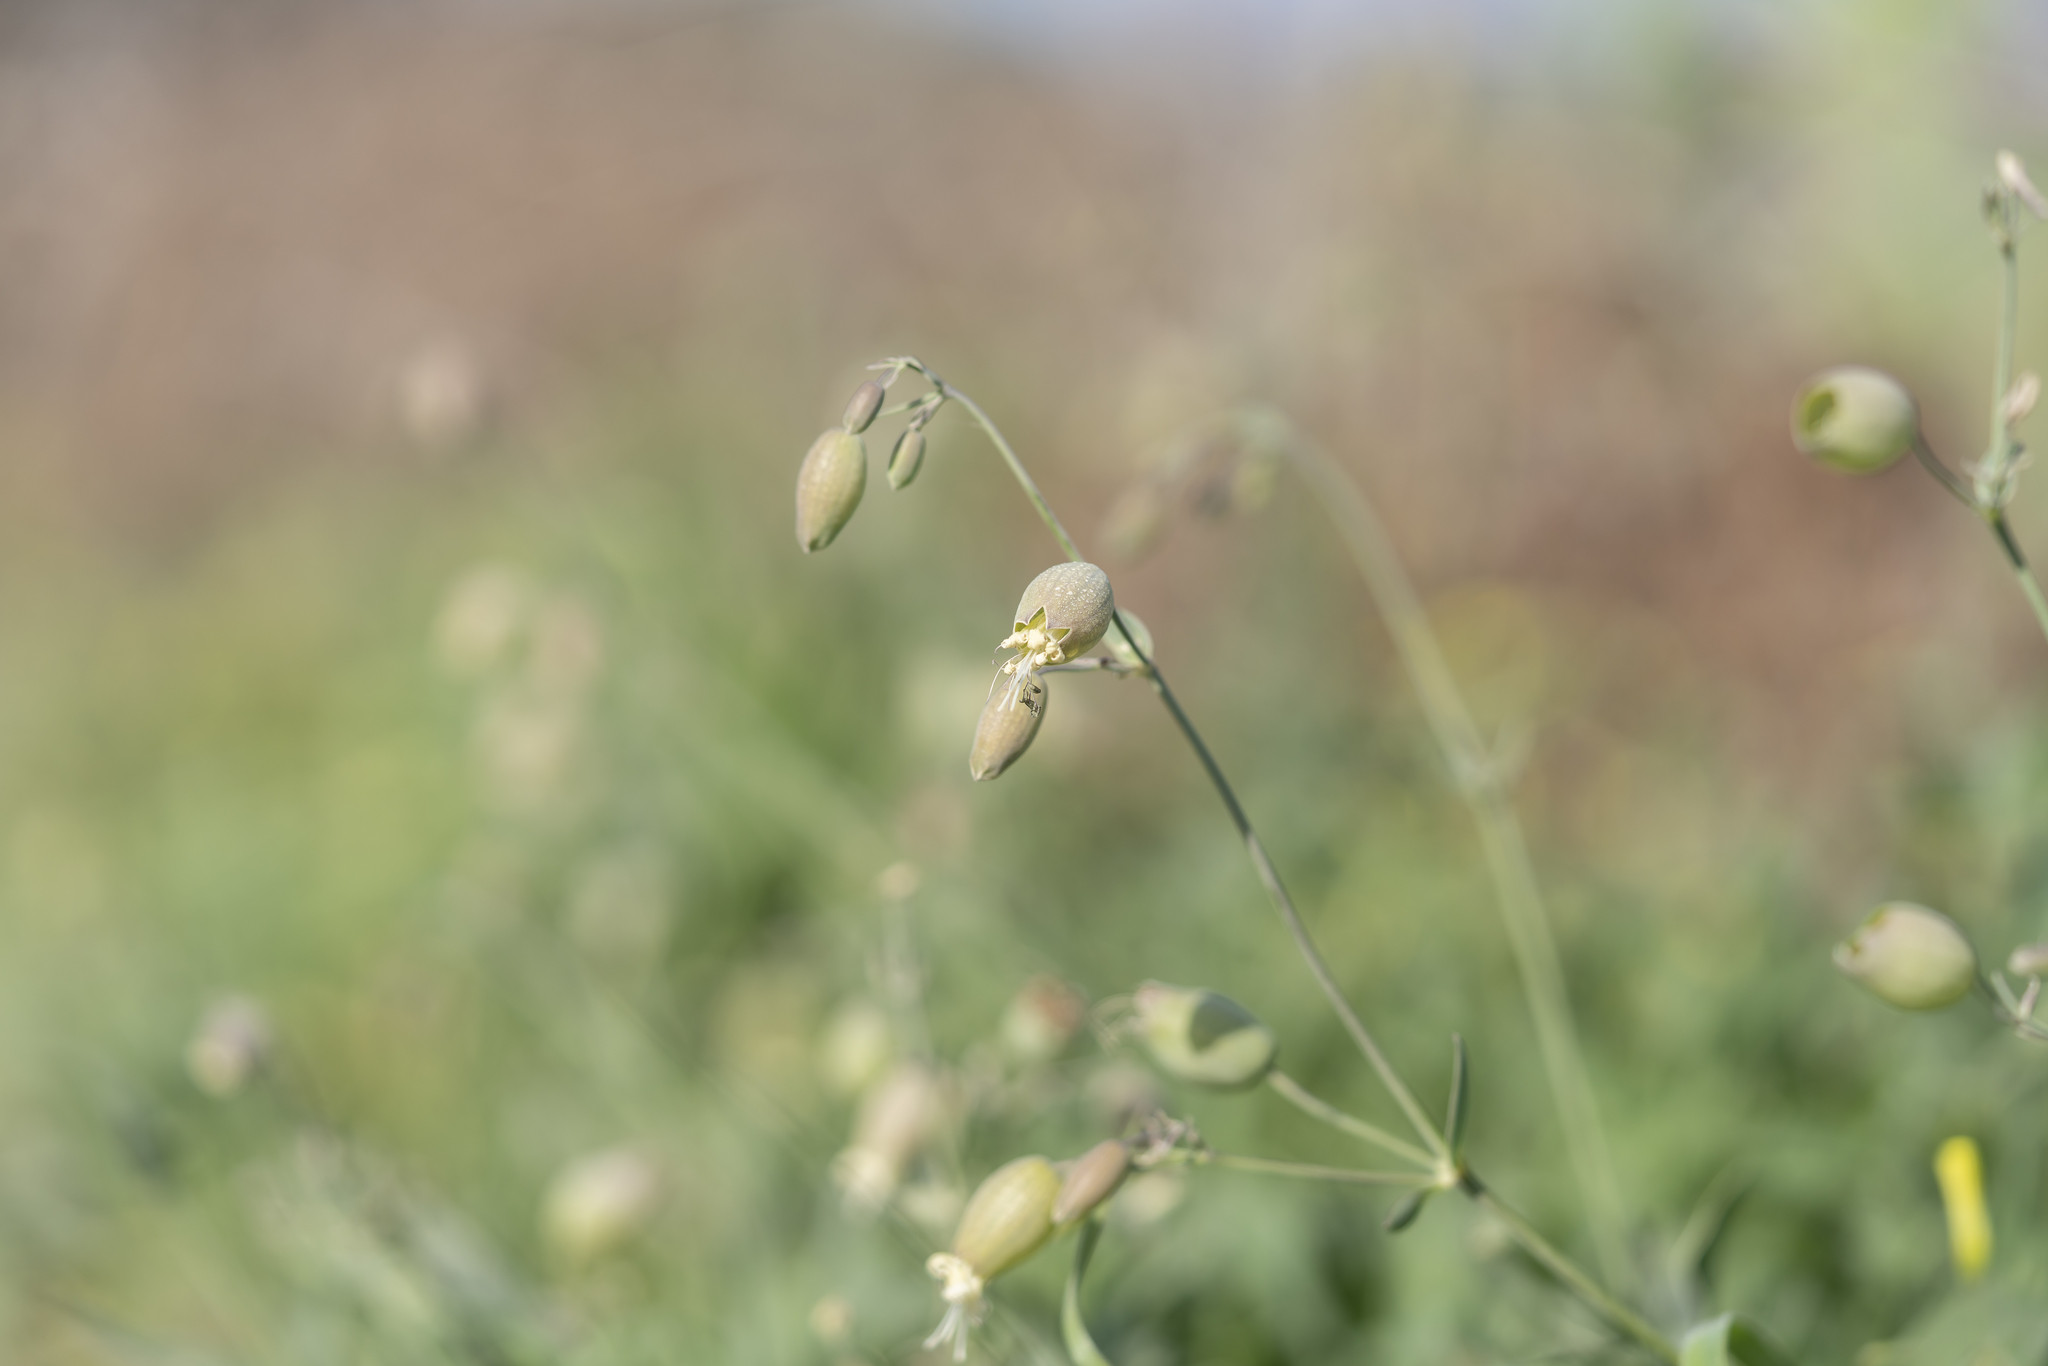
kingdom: Plantae
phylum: Tracheophyta
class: Magnoliopsida
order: Caryophyllales
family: Caryophyllaceae
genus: Silene
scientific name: Silene vulgaris
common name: Bladder campion
